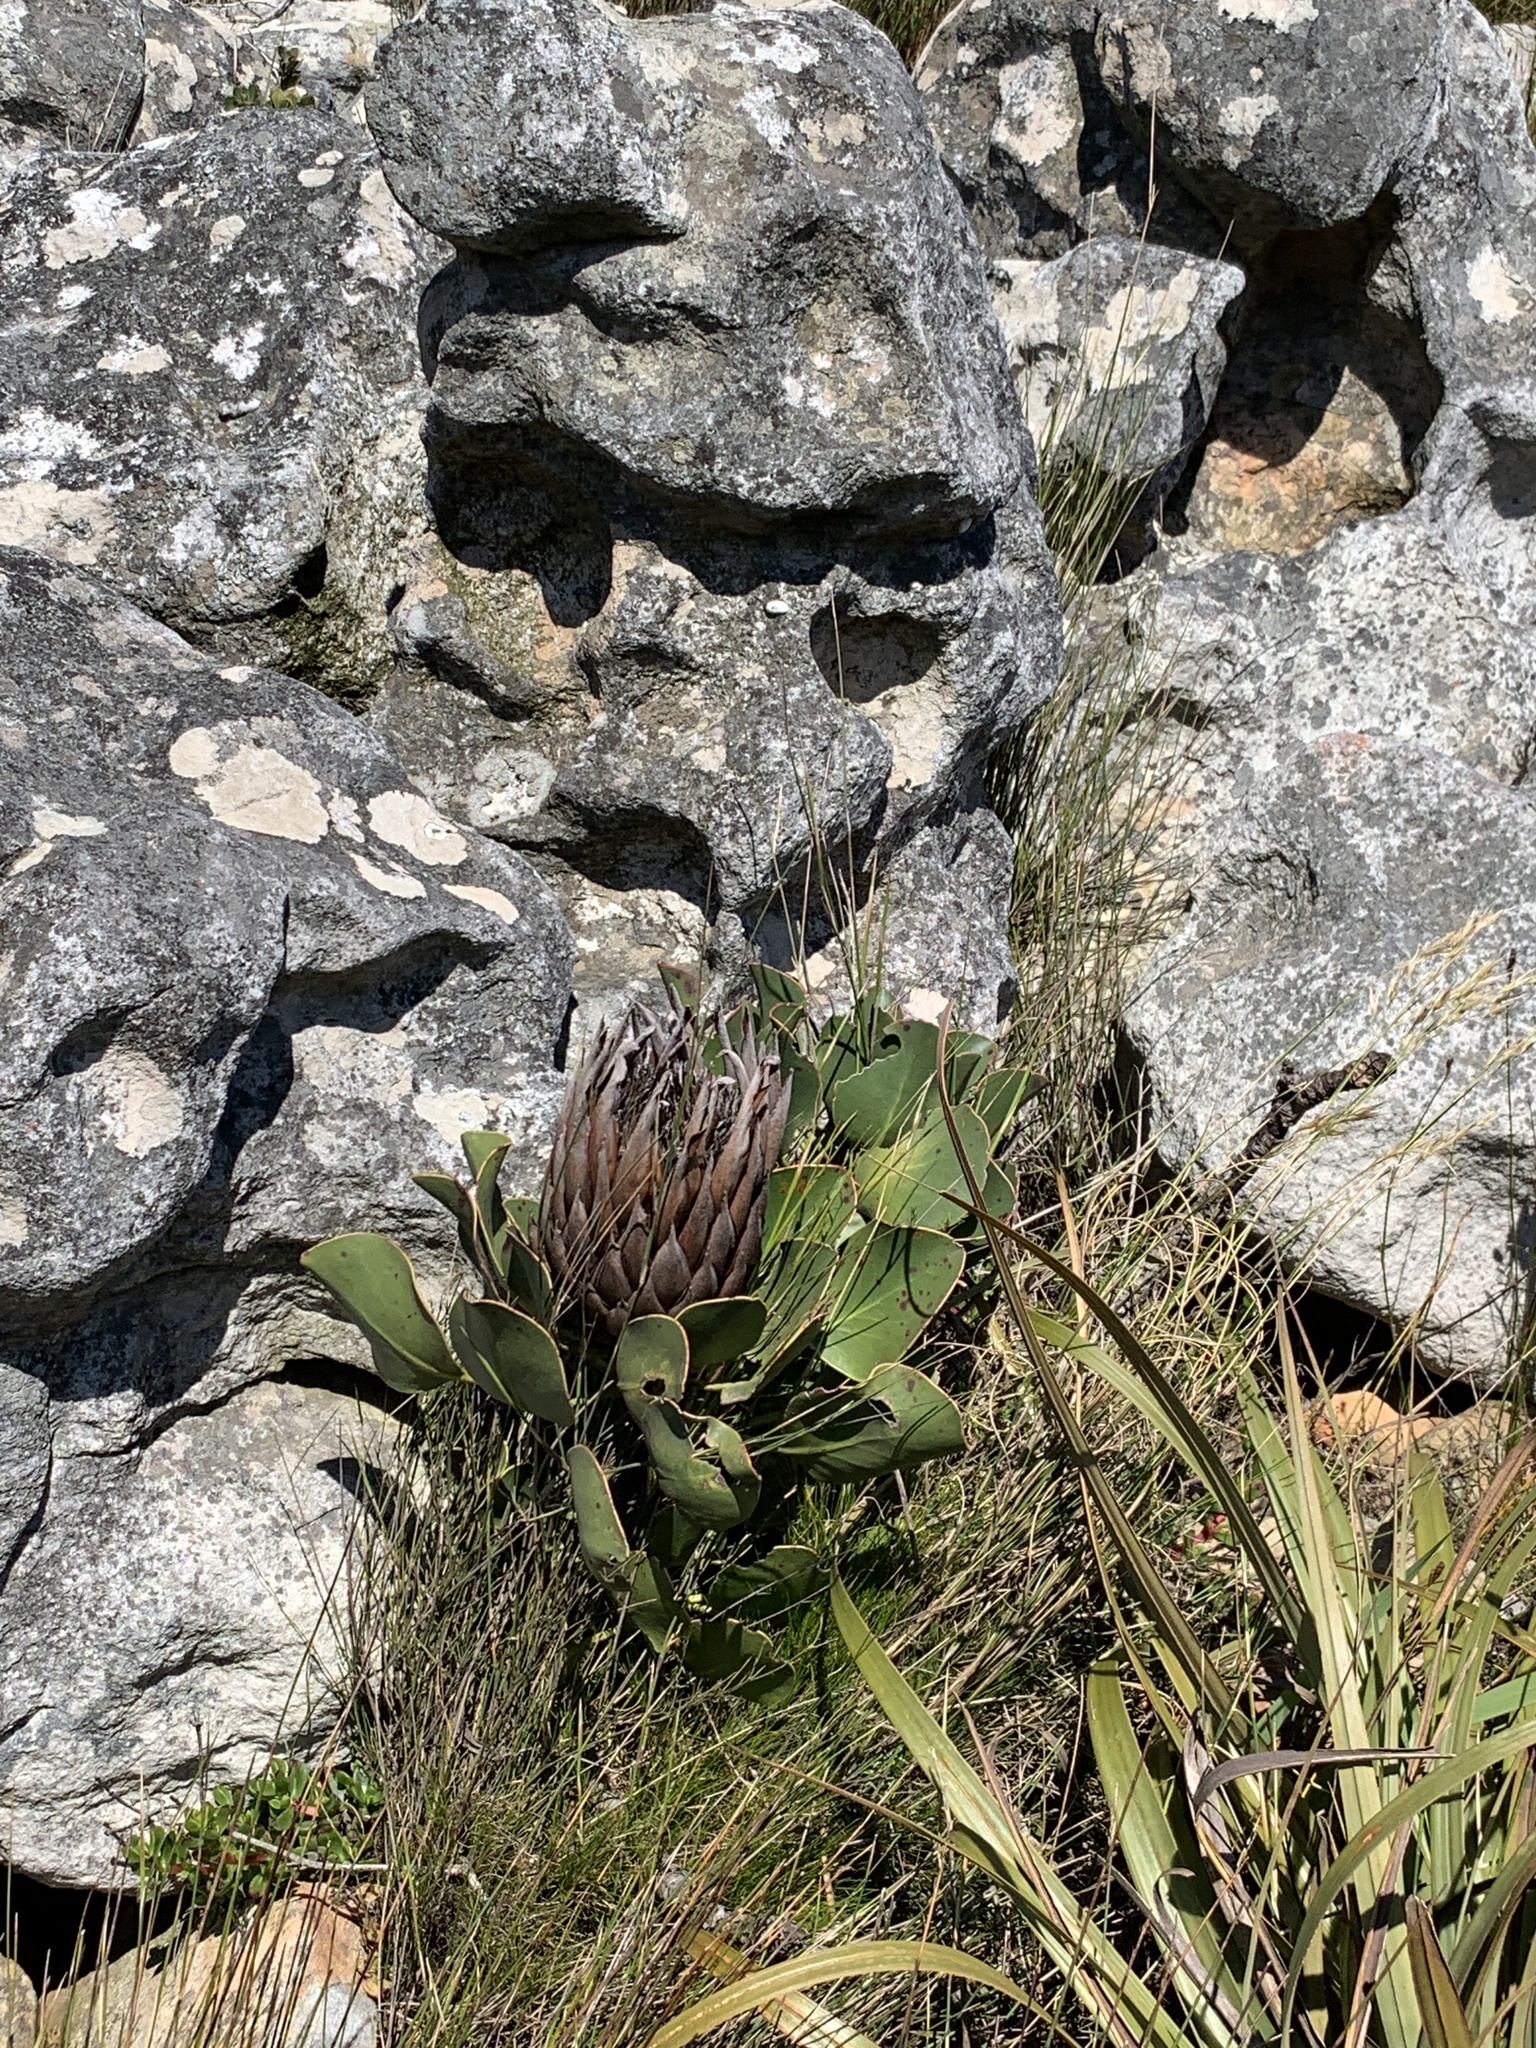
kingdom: Plantae
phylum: Tracheophyta
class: Magnoliopsida
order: Proteales
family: Proteaceae
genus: Protea
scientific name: Protea cynaroides
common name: King protea
